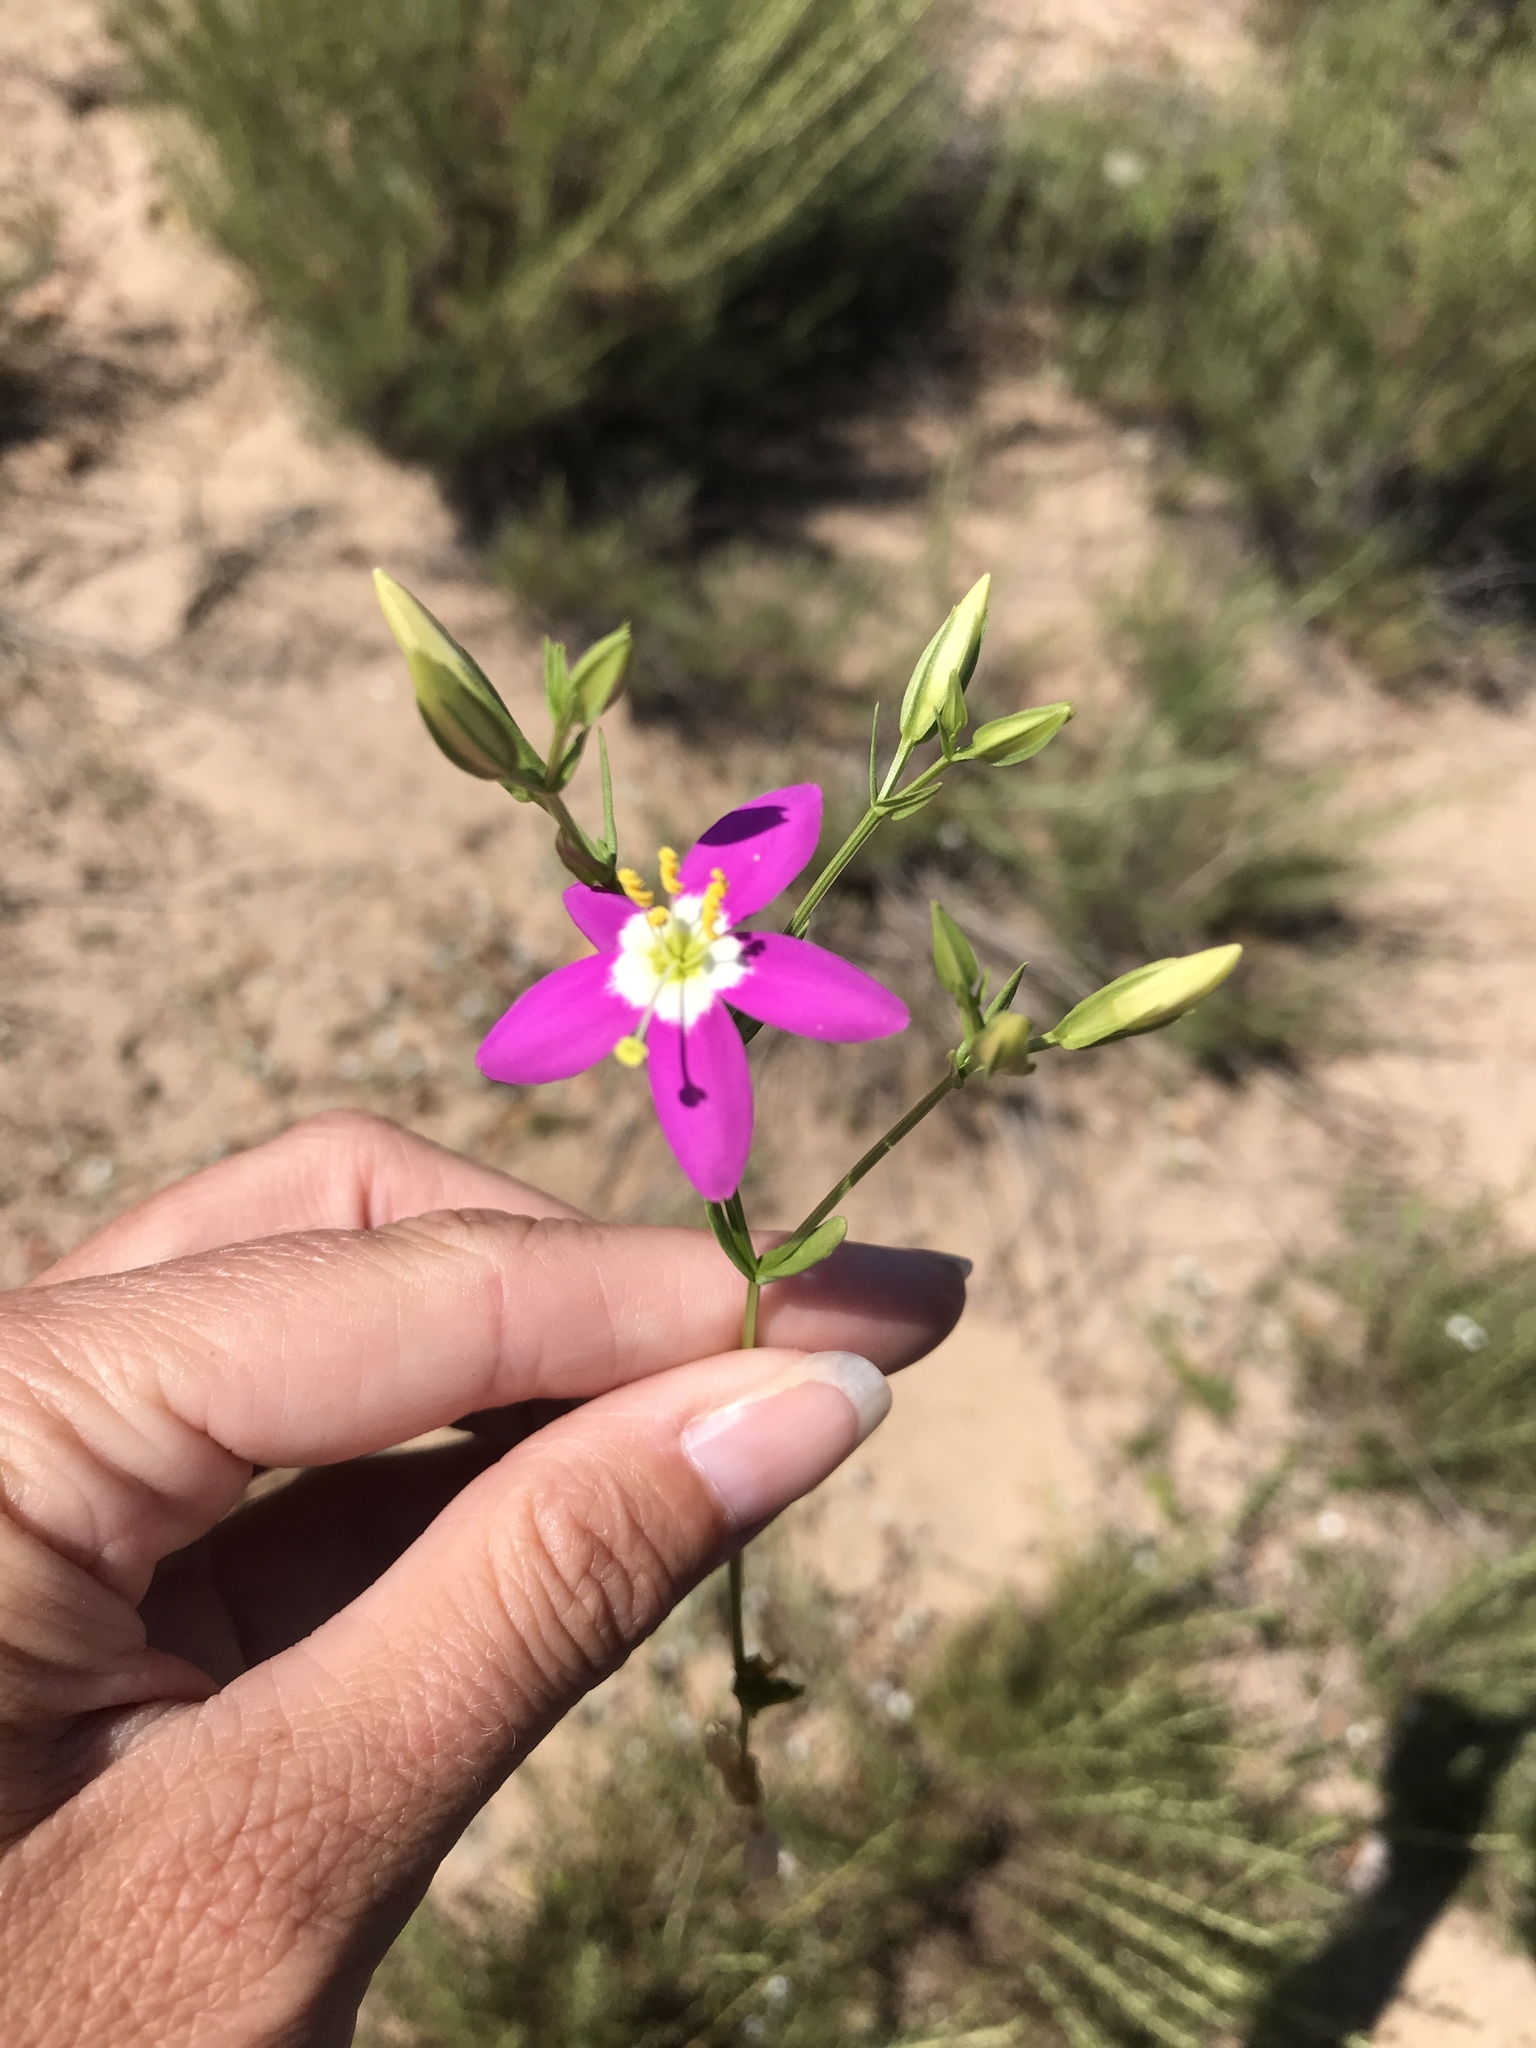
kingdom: Plantae
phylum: Tracheophyta
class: Magnoliopsida
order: Gentianales
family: Gentianaceae
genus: Zeltnera
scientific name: Zeltnera venusta
